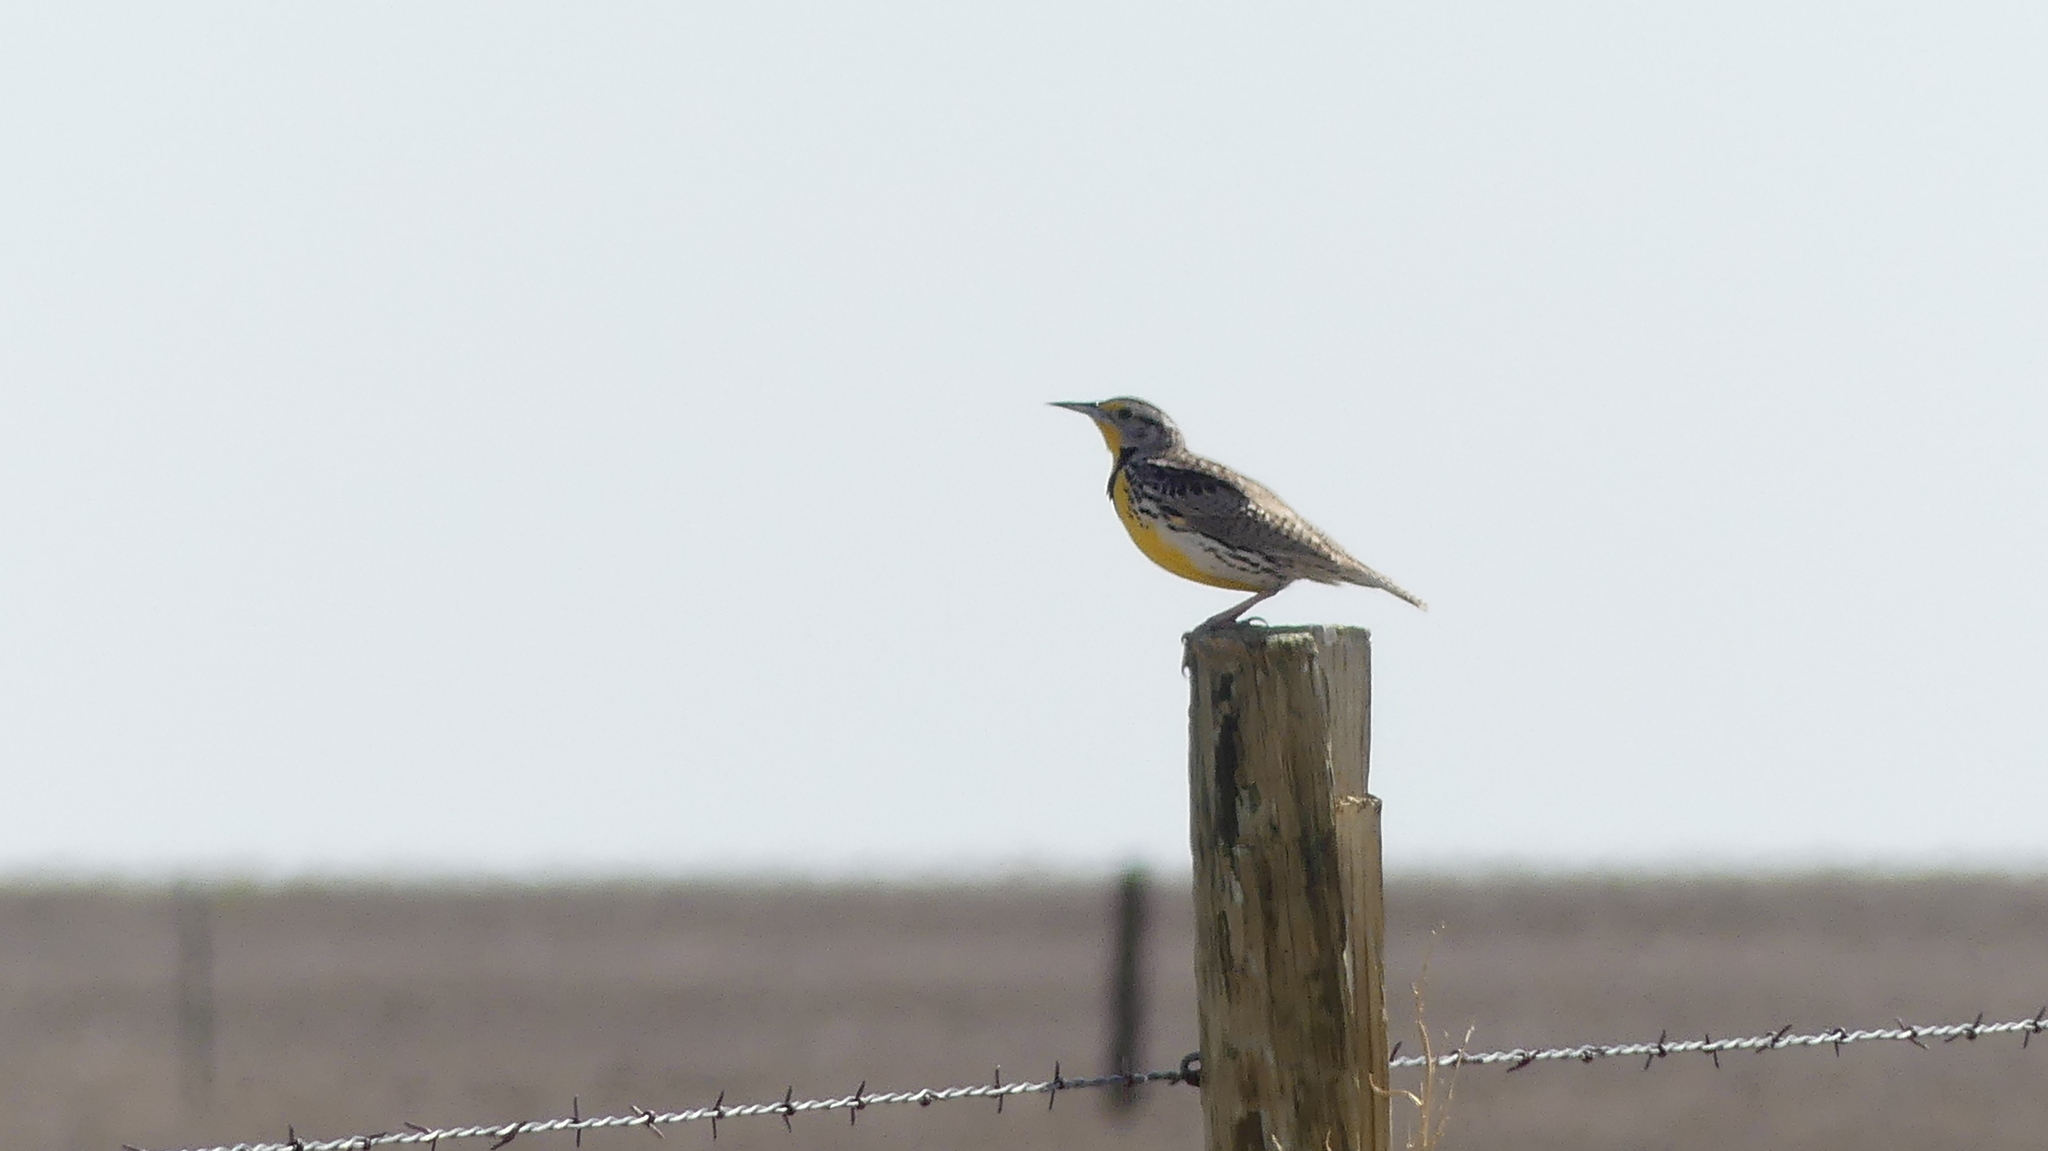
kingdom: Animalia
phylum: Chordata
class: Aves
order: Passeriformes
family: Icteridae
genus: Sturnella
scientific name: Sturnella neglecta
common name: Western meadowlark
